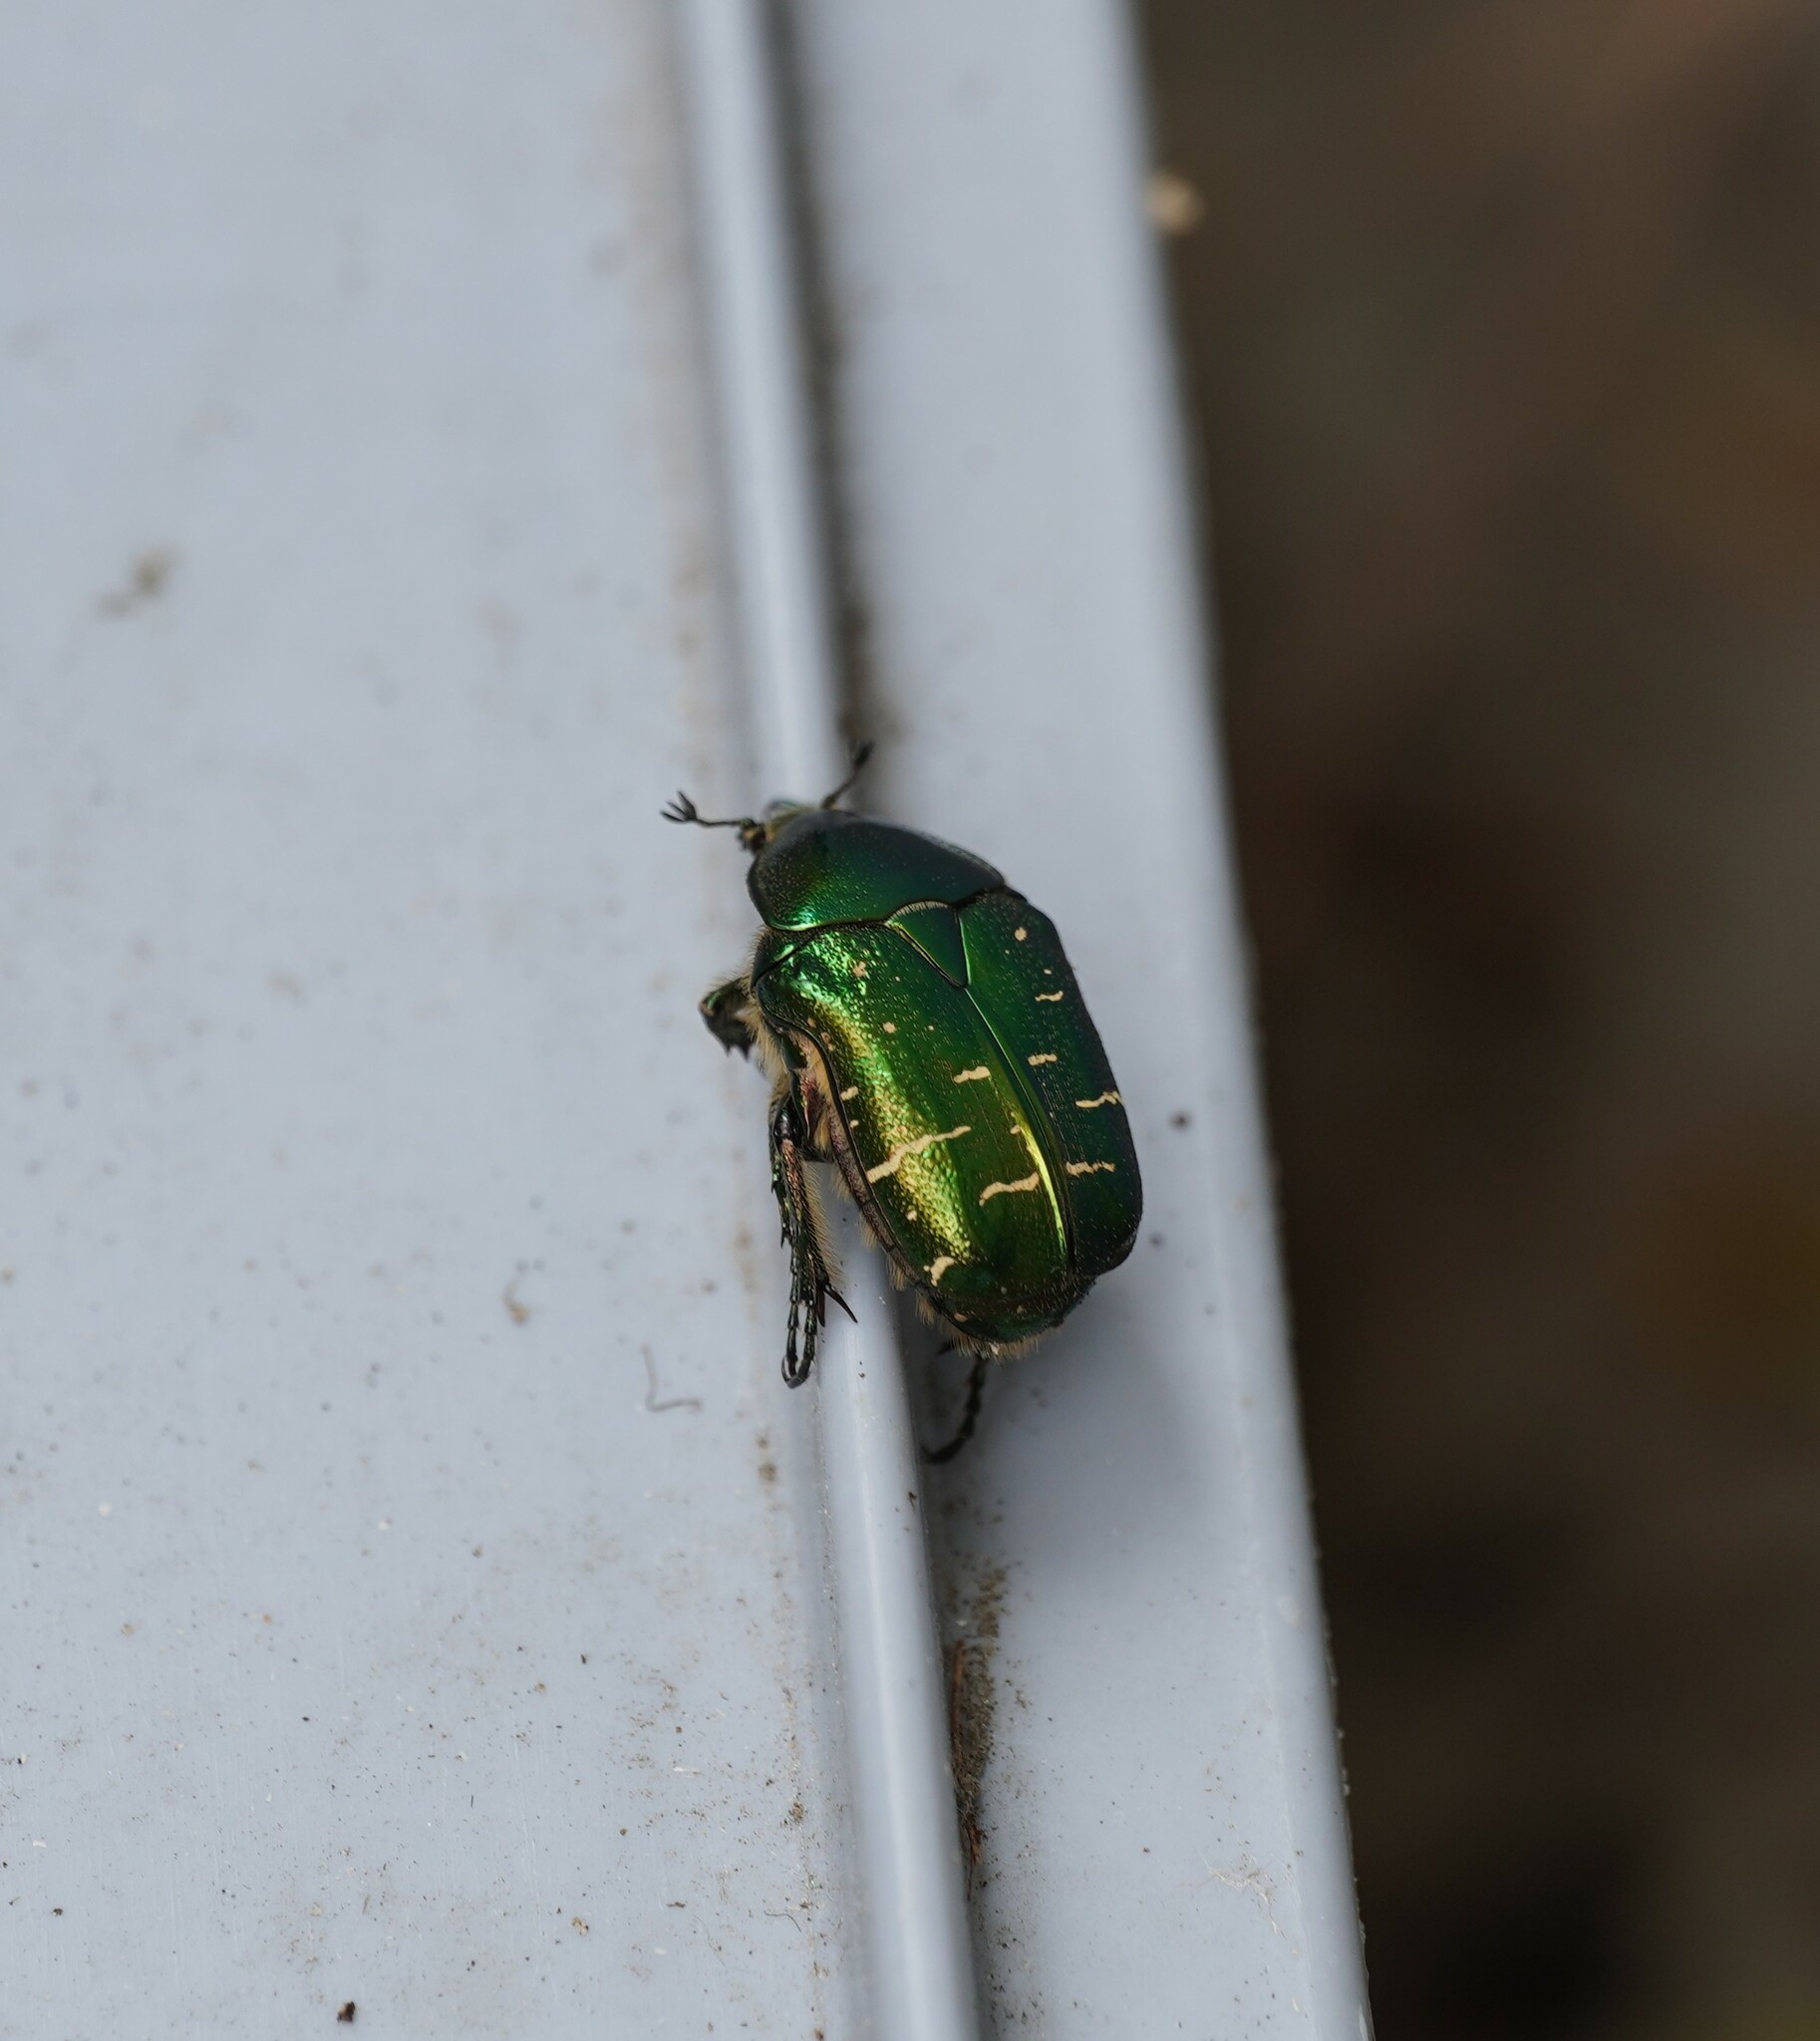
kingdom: Animalia
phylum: Arthropoda
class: Insecta
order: Coleoptera
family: Scarabaeidae
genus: Cetonia
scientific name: Cetonia aurata
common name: Rose chafer
